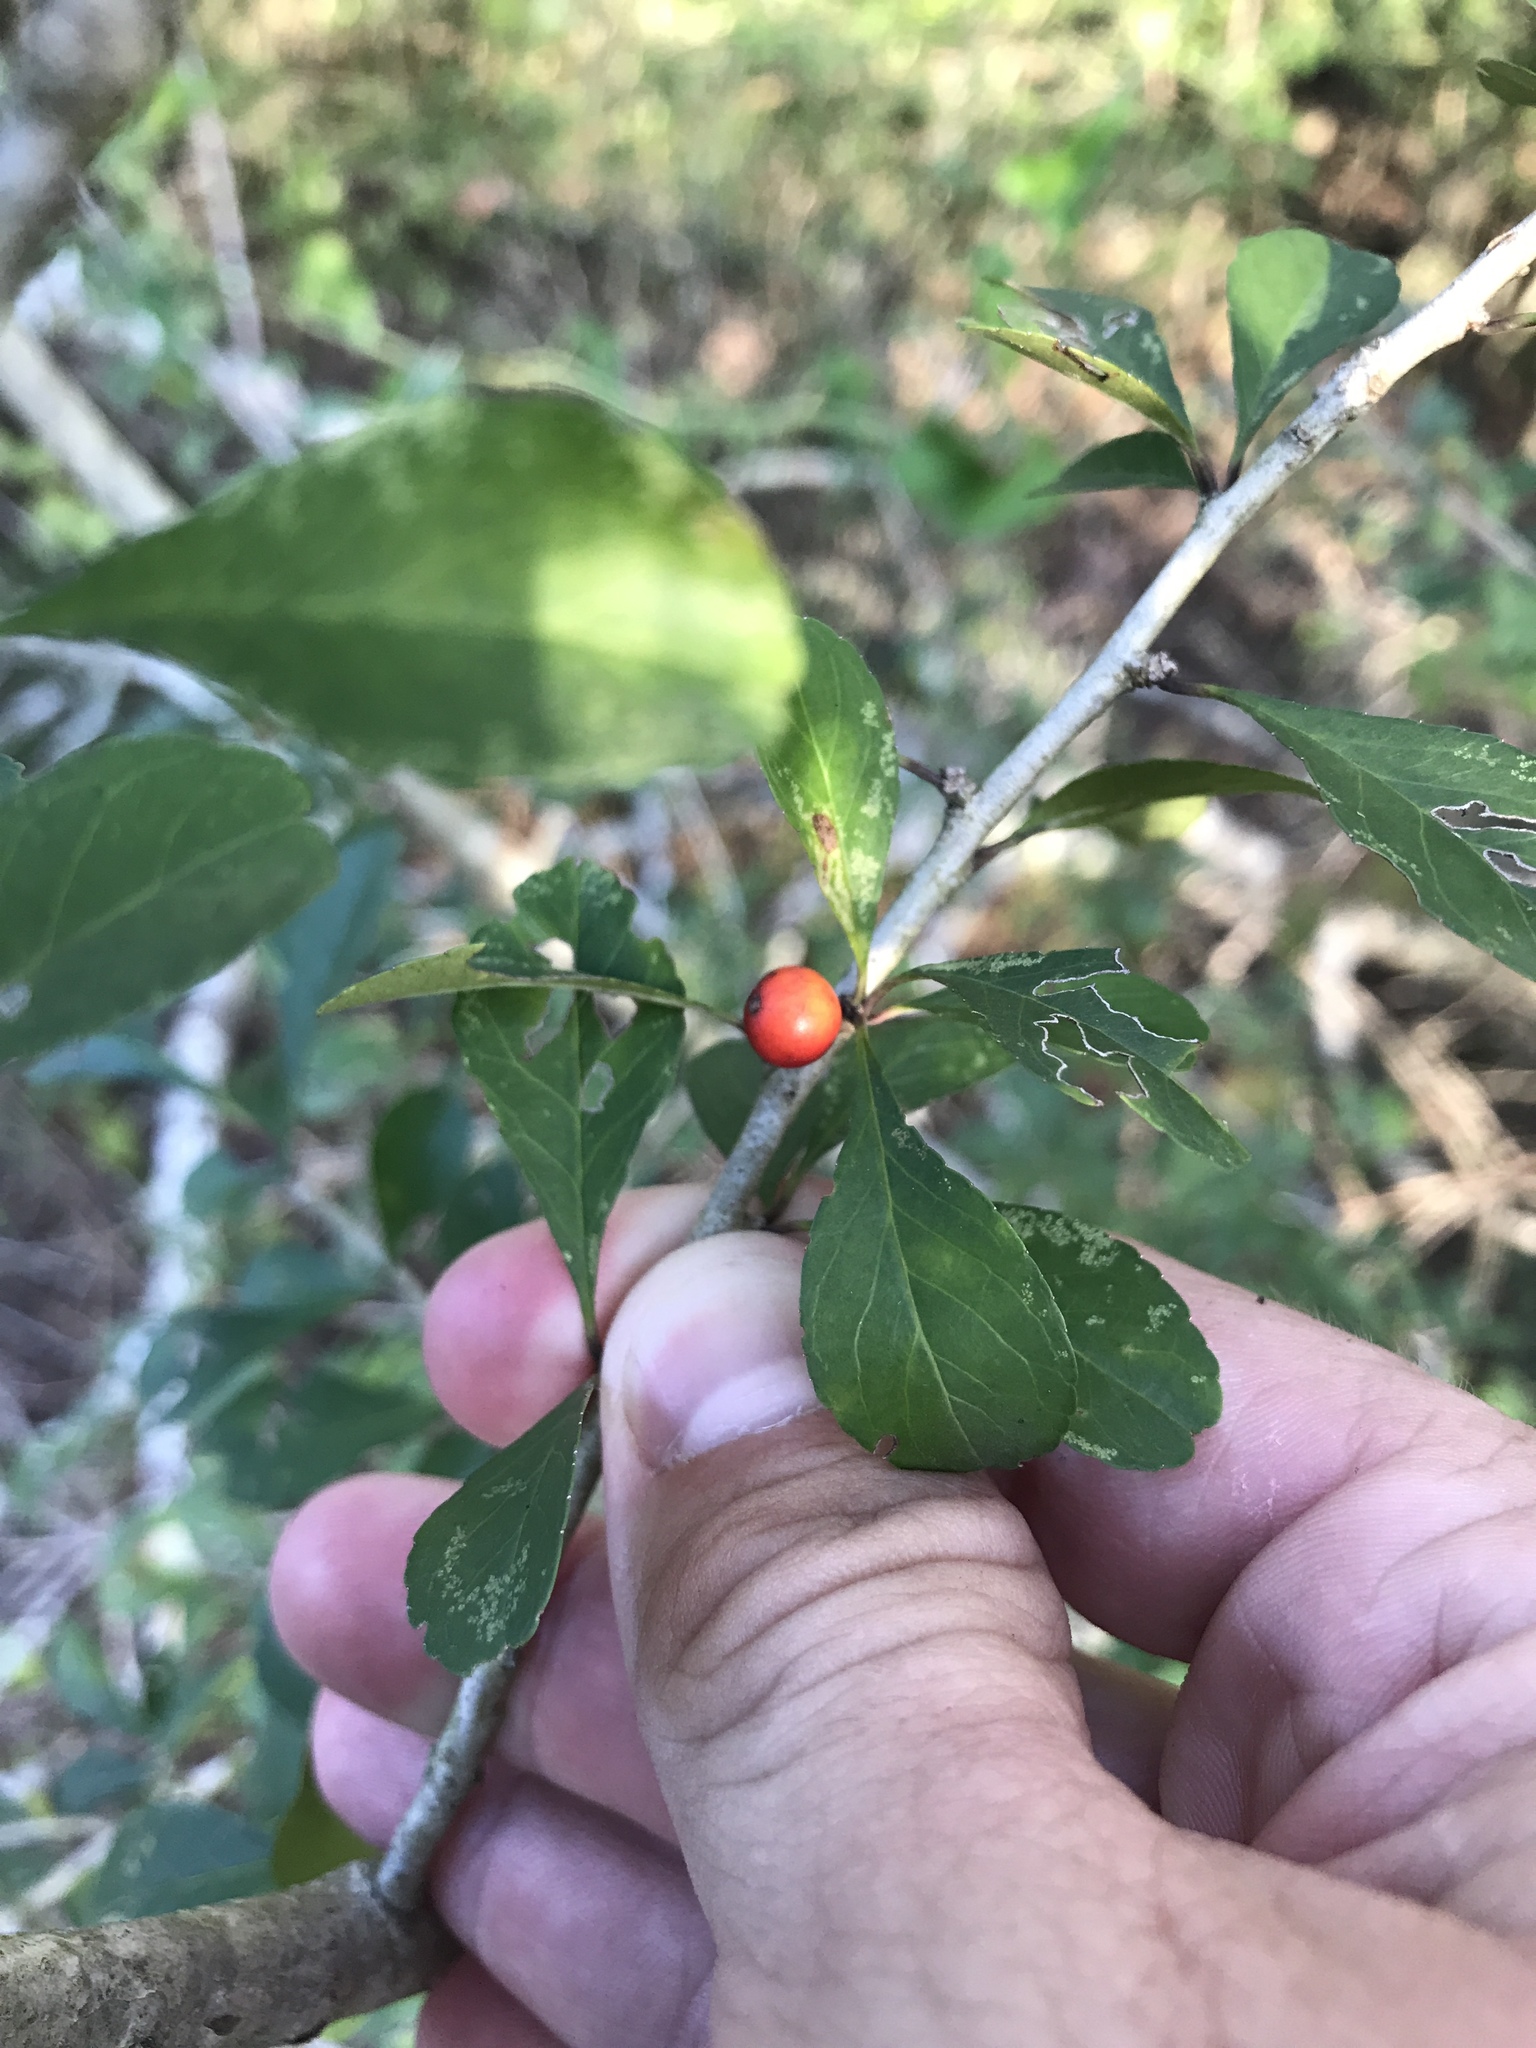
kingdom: Plantae
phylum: Tracheophyta
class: Magnoliopsida
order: Aquifoliales
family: Aquifoliaceae
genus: Ilex
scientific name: Ilex decidua
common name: Possum-haw
